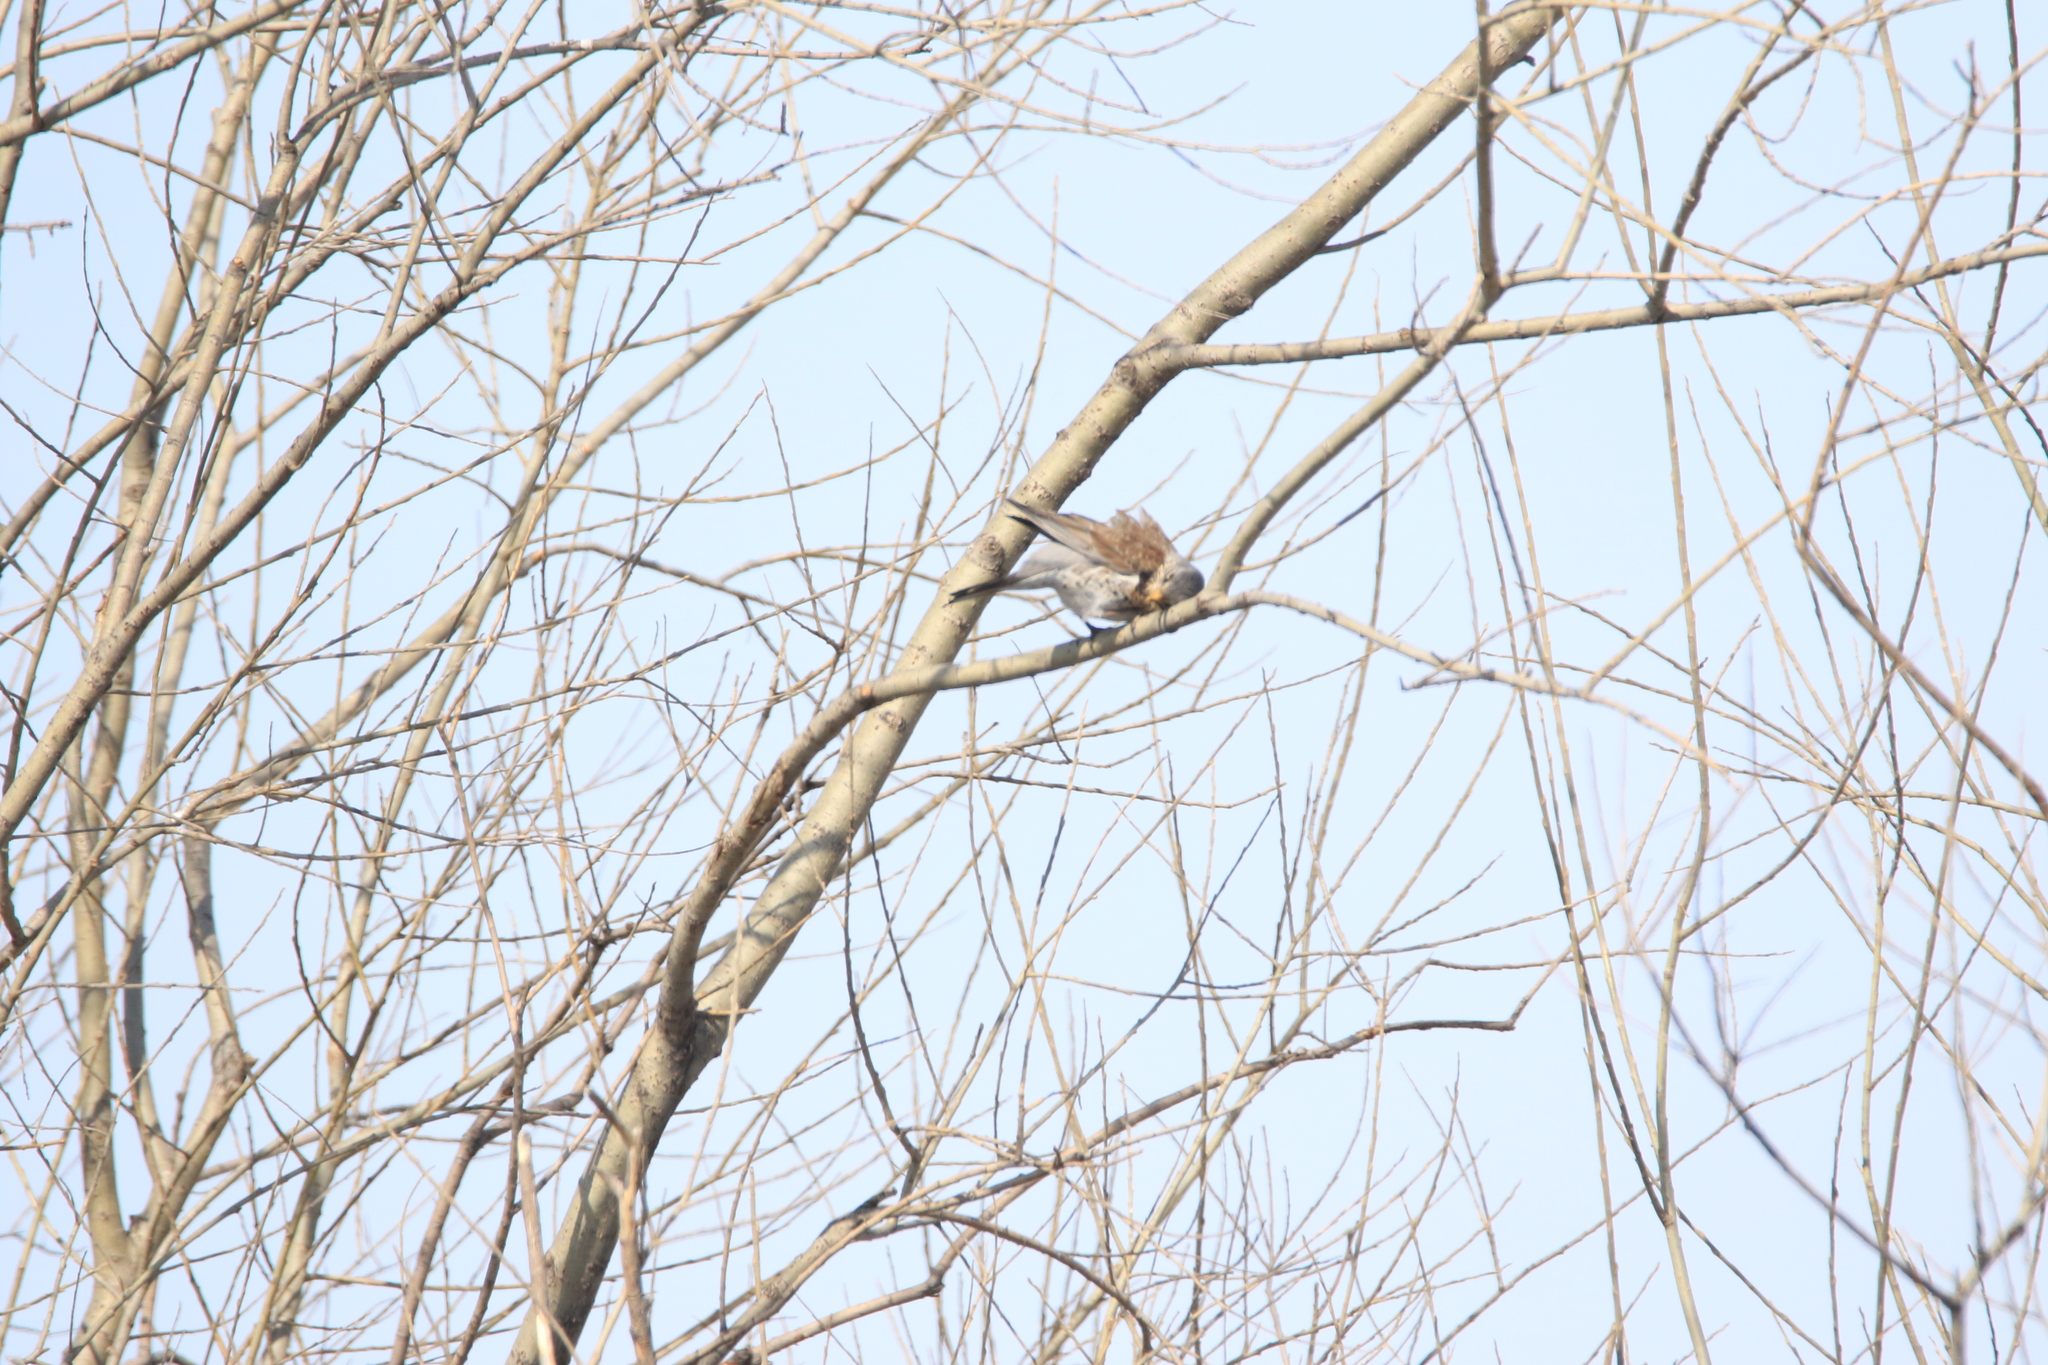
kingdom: Animalia
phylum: Chordata
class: Aves
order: Passeriformes
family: Turdidae
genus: Turdus
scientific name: Turdus pilaris
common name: Fieldfare
